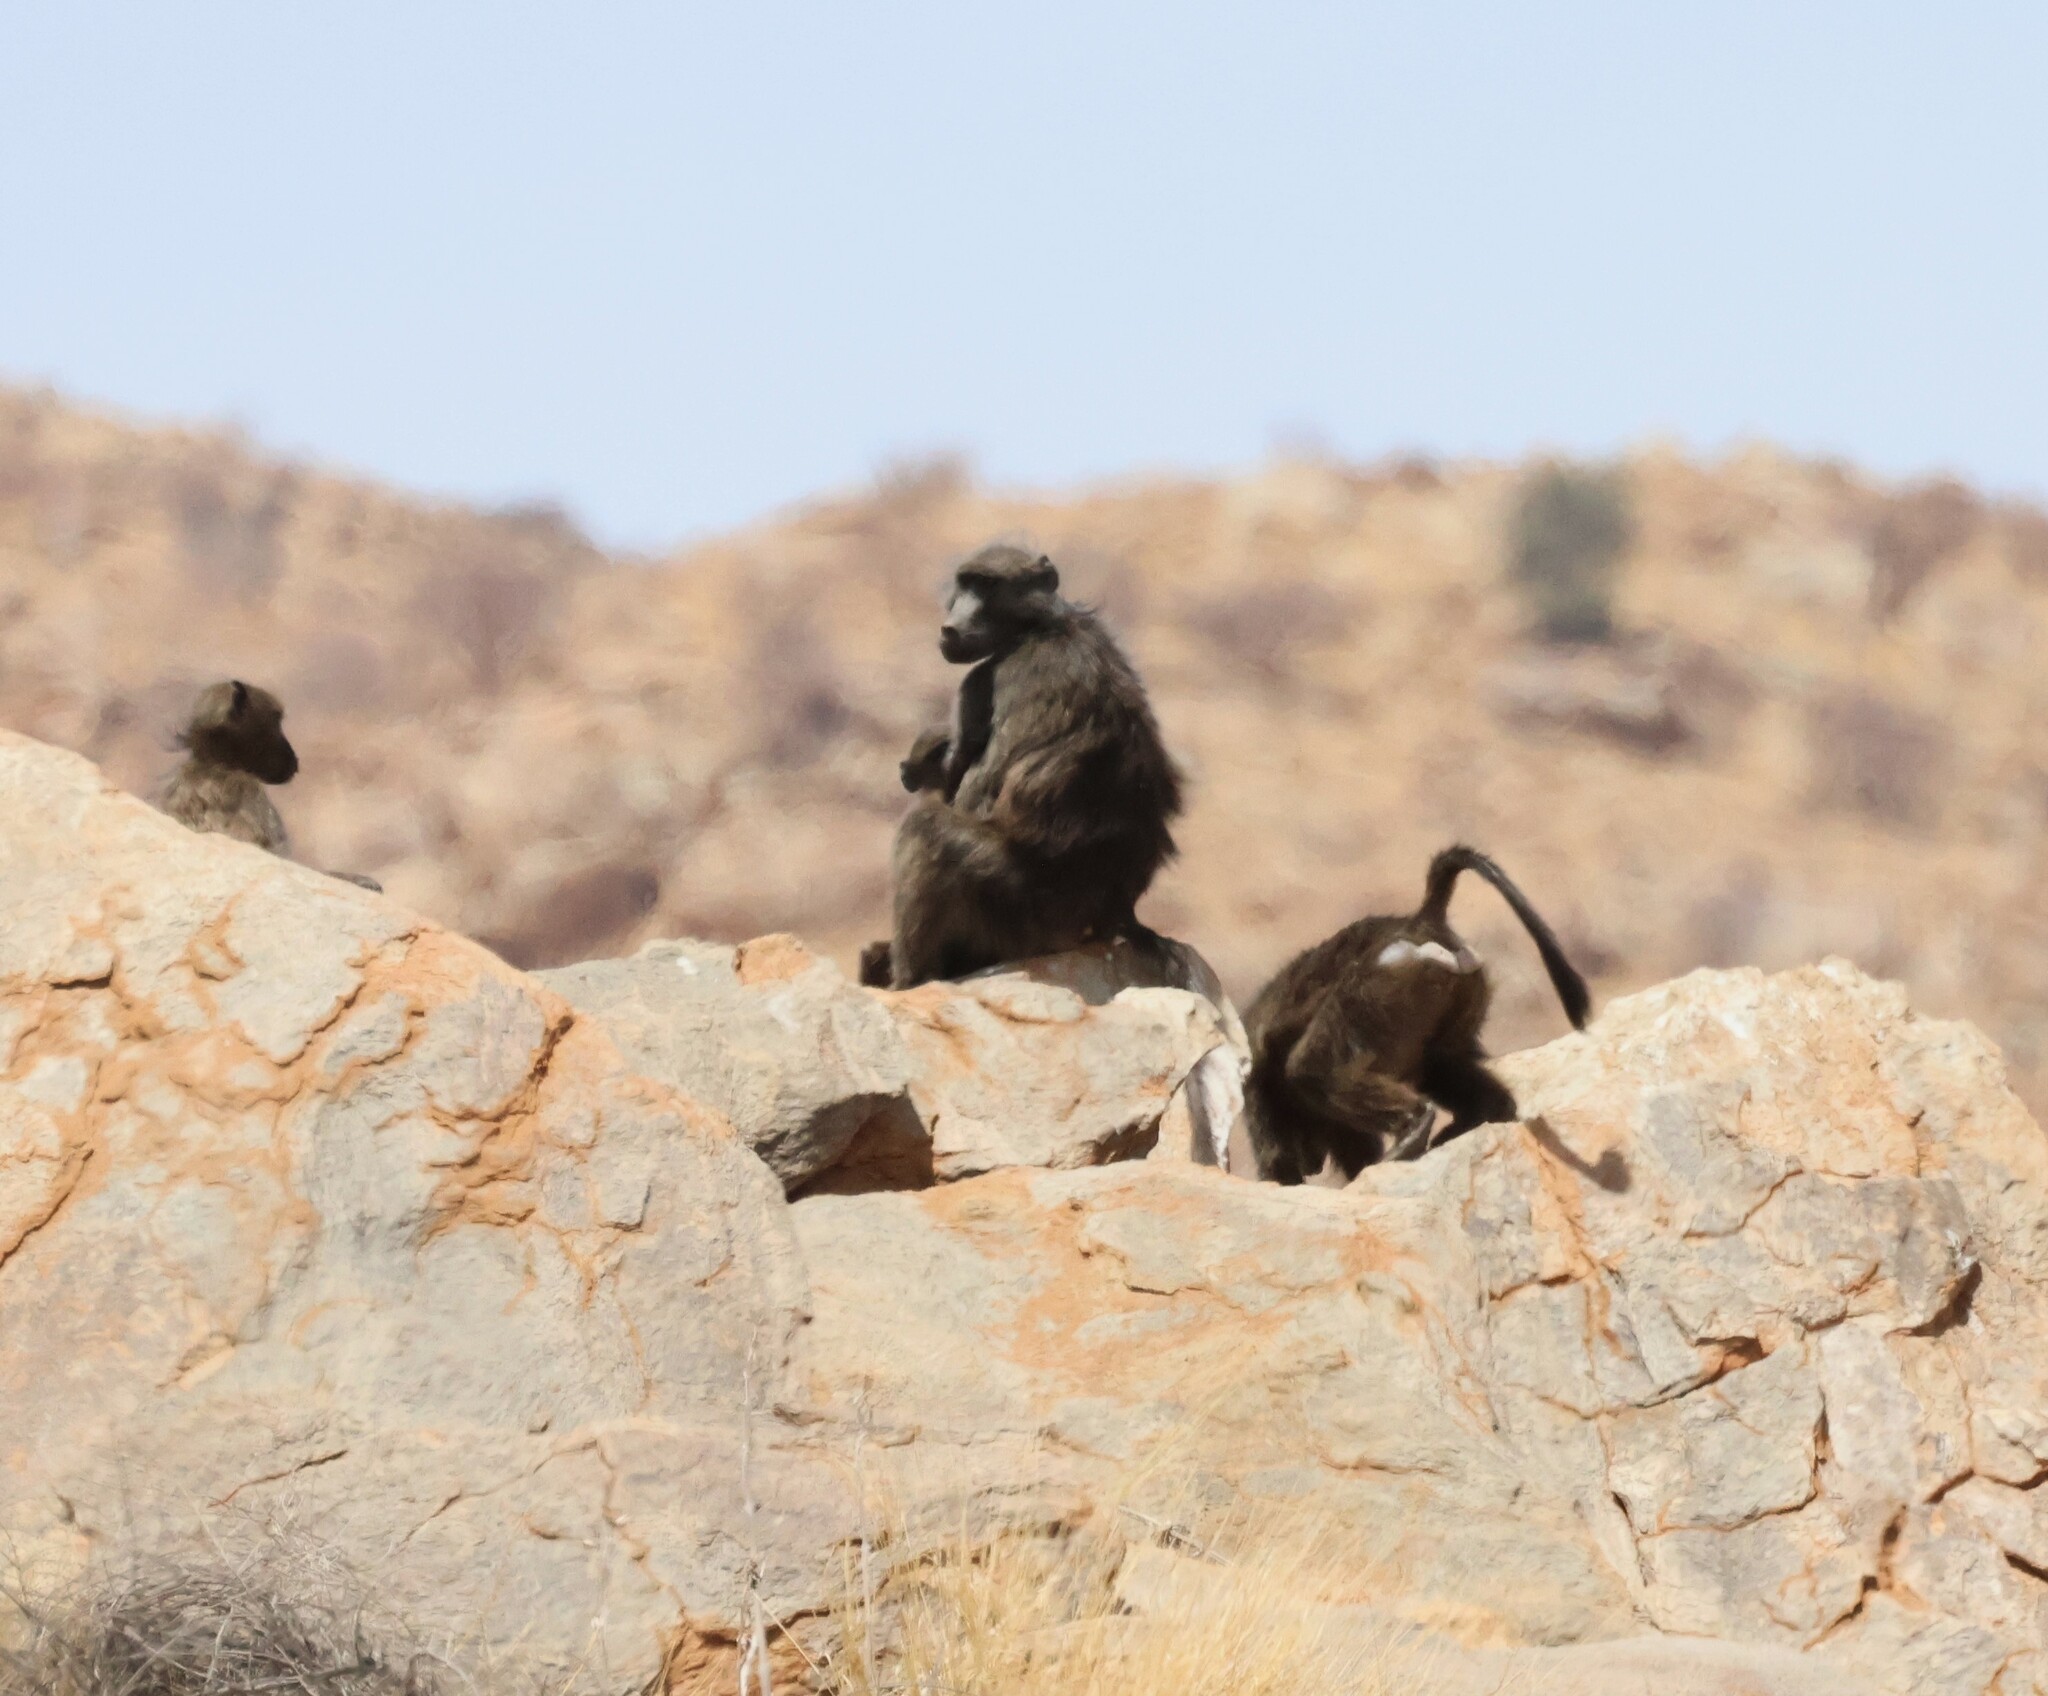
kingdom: Animalia
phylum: Chordata
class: Mammalia
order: Primates
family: Cercopithecidae
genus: Papio
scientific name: Papio ursinus
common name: Chacma baboon
